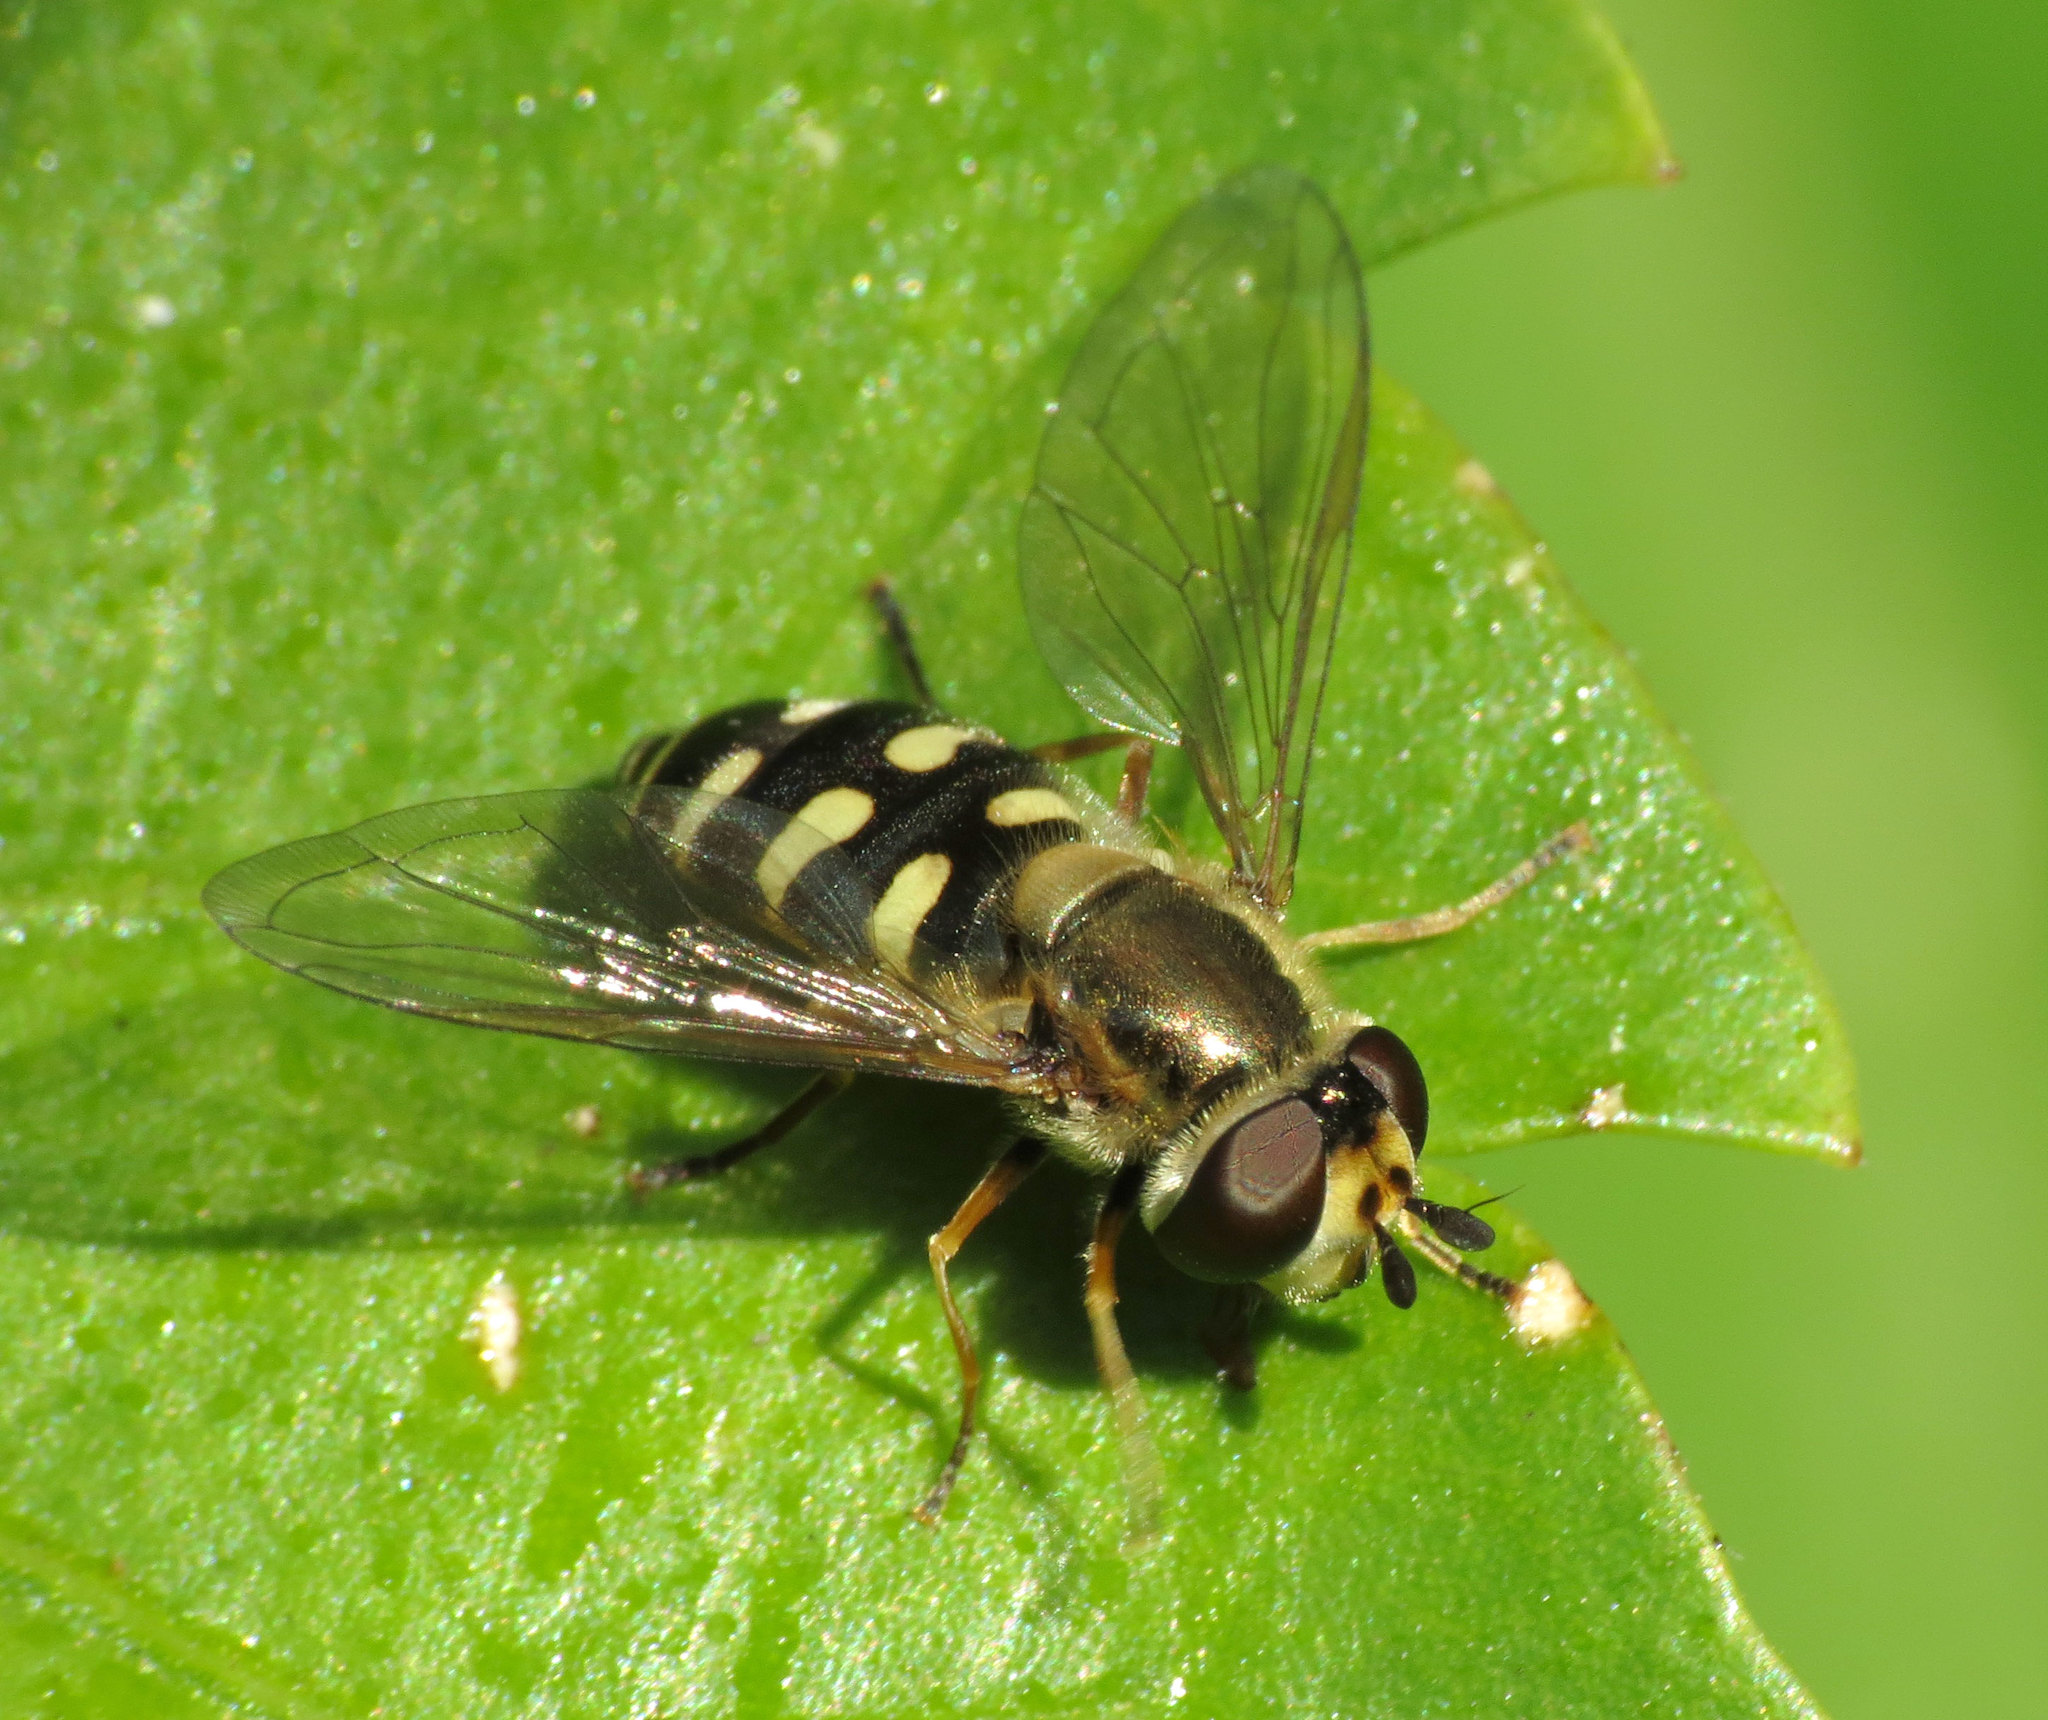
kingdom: Animalia
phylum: Arthropoda
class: Insecta
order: Diptera
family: Syrphidae
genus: Eupeodes
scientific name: Eupeodes corollae
